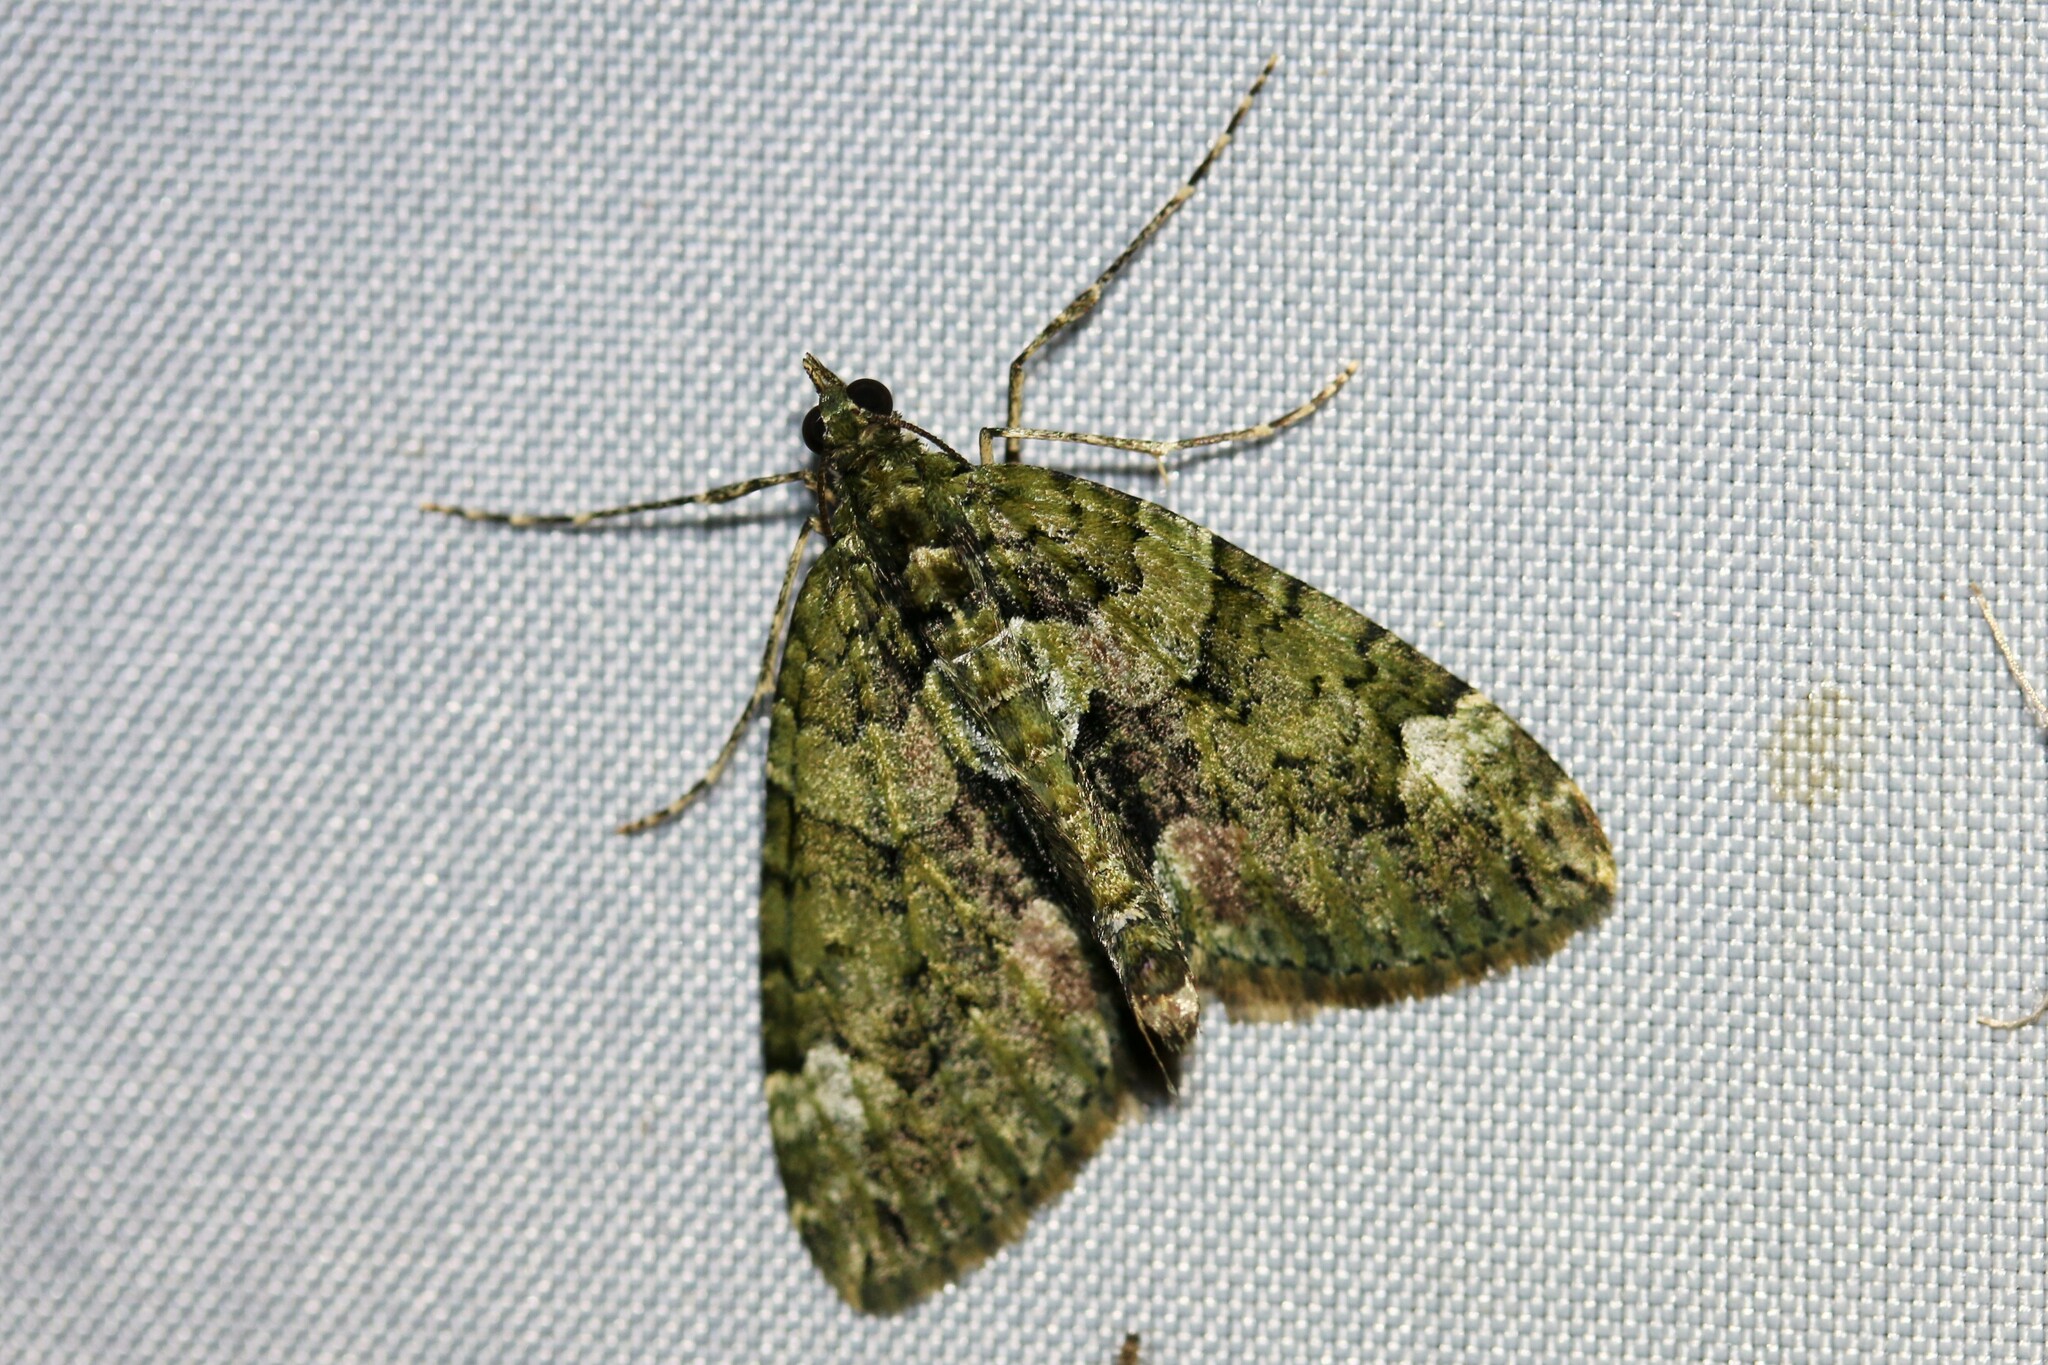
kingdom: Animalia
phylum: Arthropoda
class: Insecta
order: Lepidoptera
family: Geometridae
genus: Chloroclysta
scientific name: Chloroclysta siterata
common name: Red-green carpet
